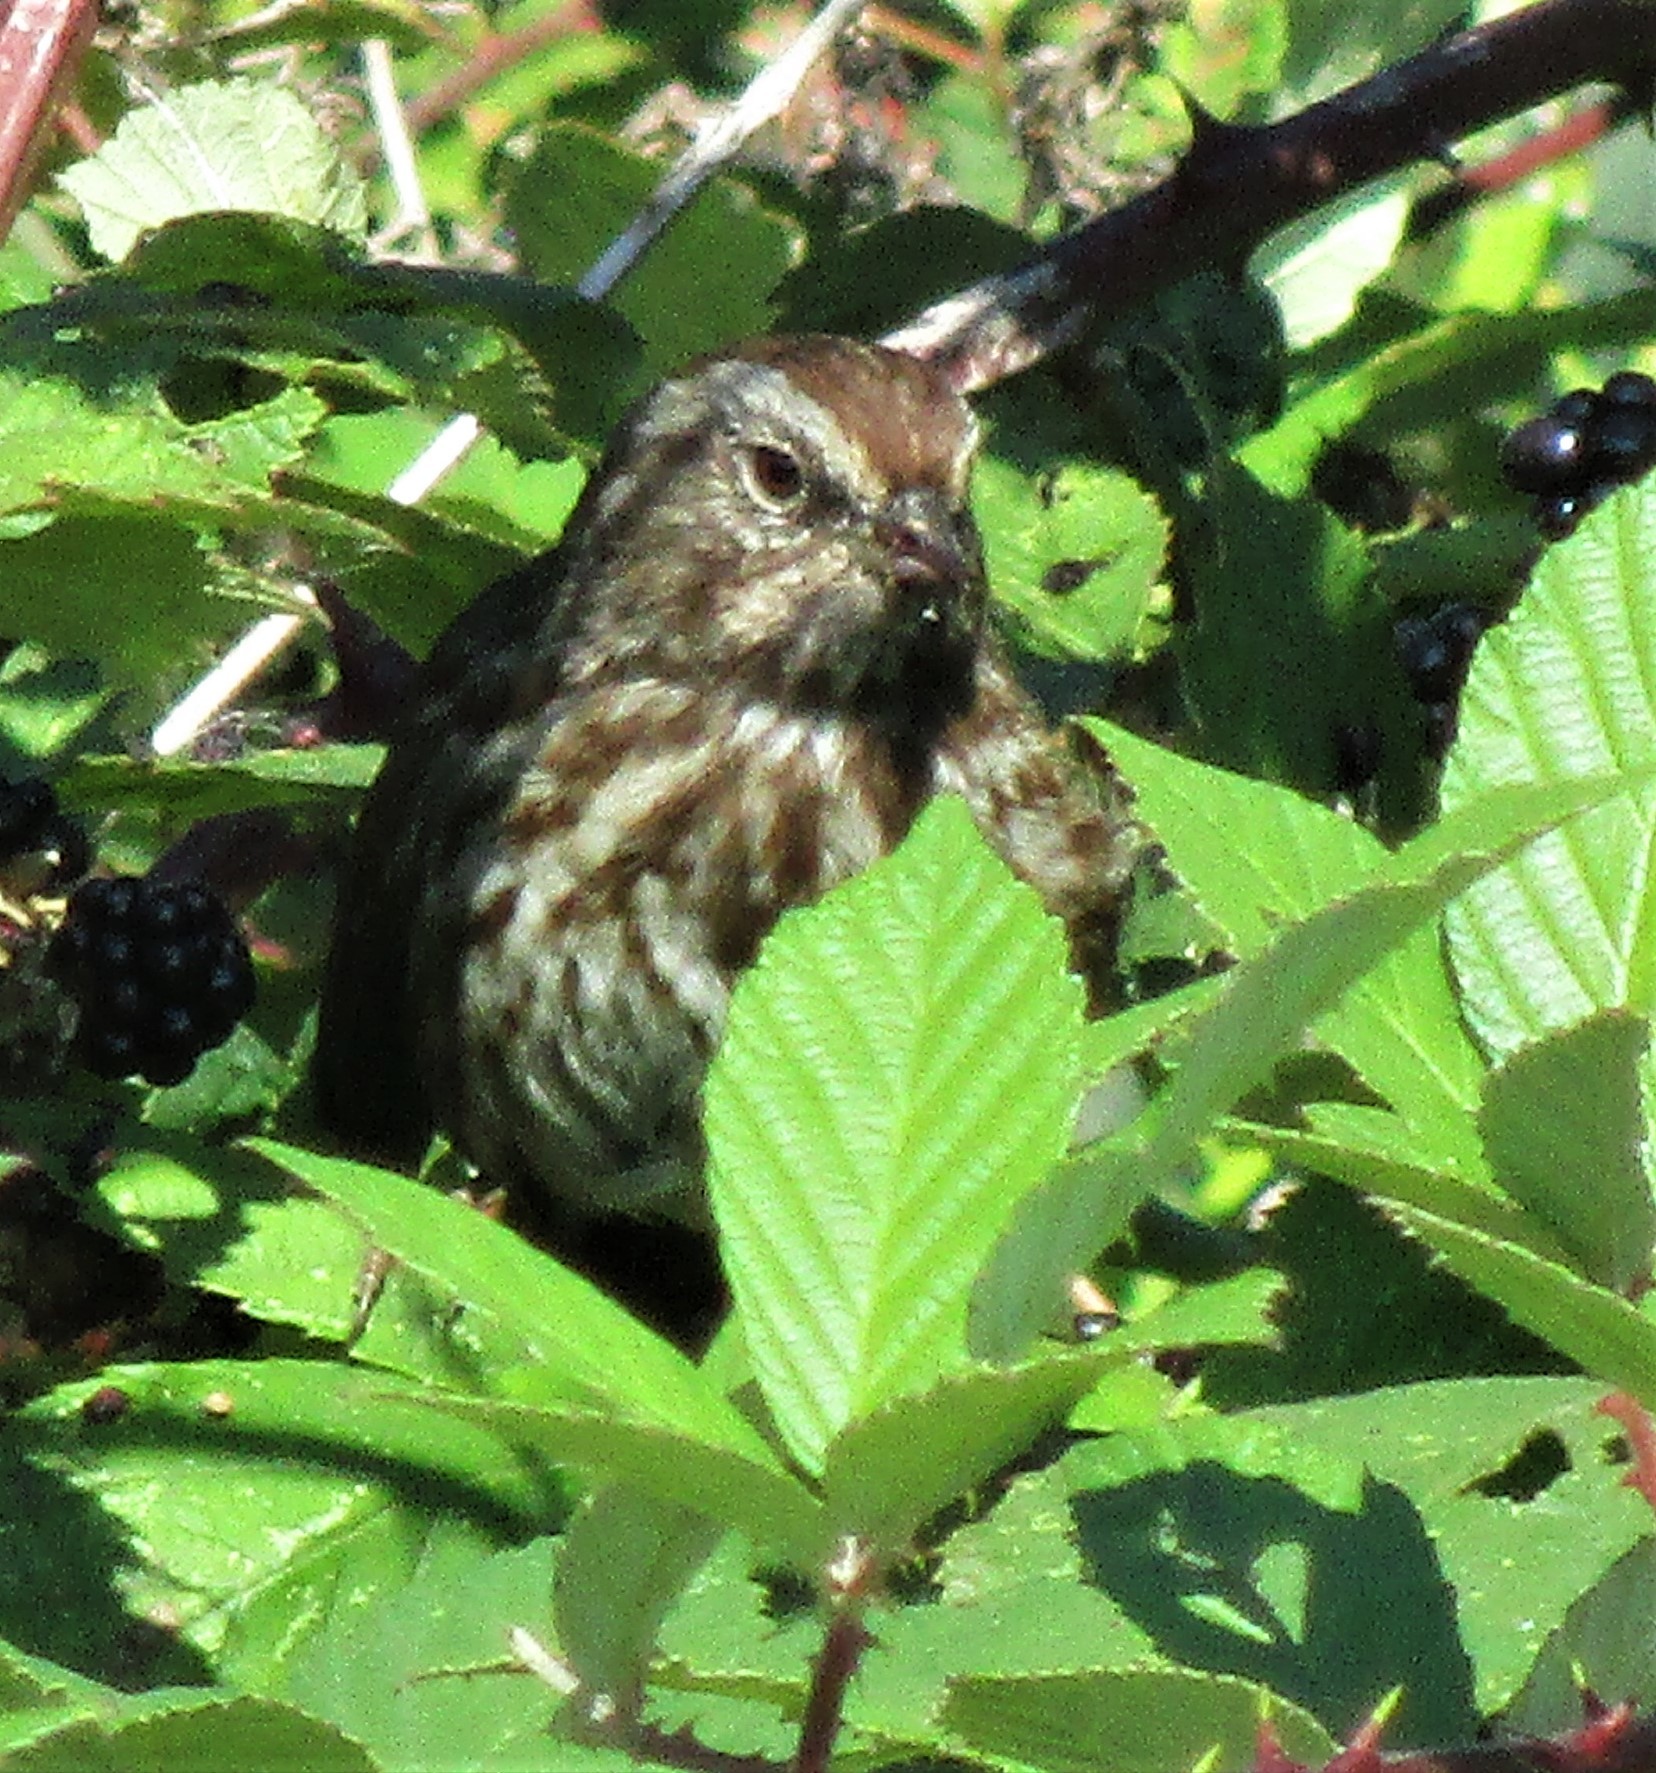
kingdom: Animalia
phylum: Chordata
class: Aves
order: Passeriformes
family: Passerellidae
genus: Melospiza
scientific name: Melospiza melodia
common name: Song sparrow
